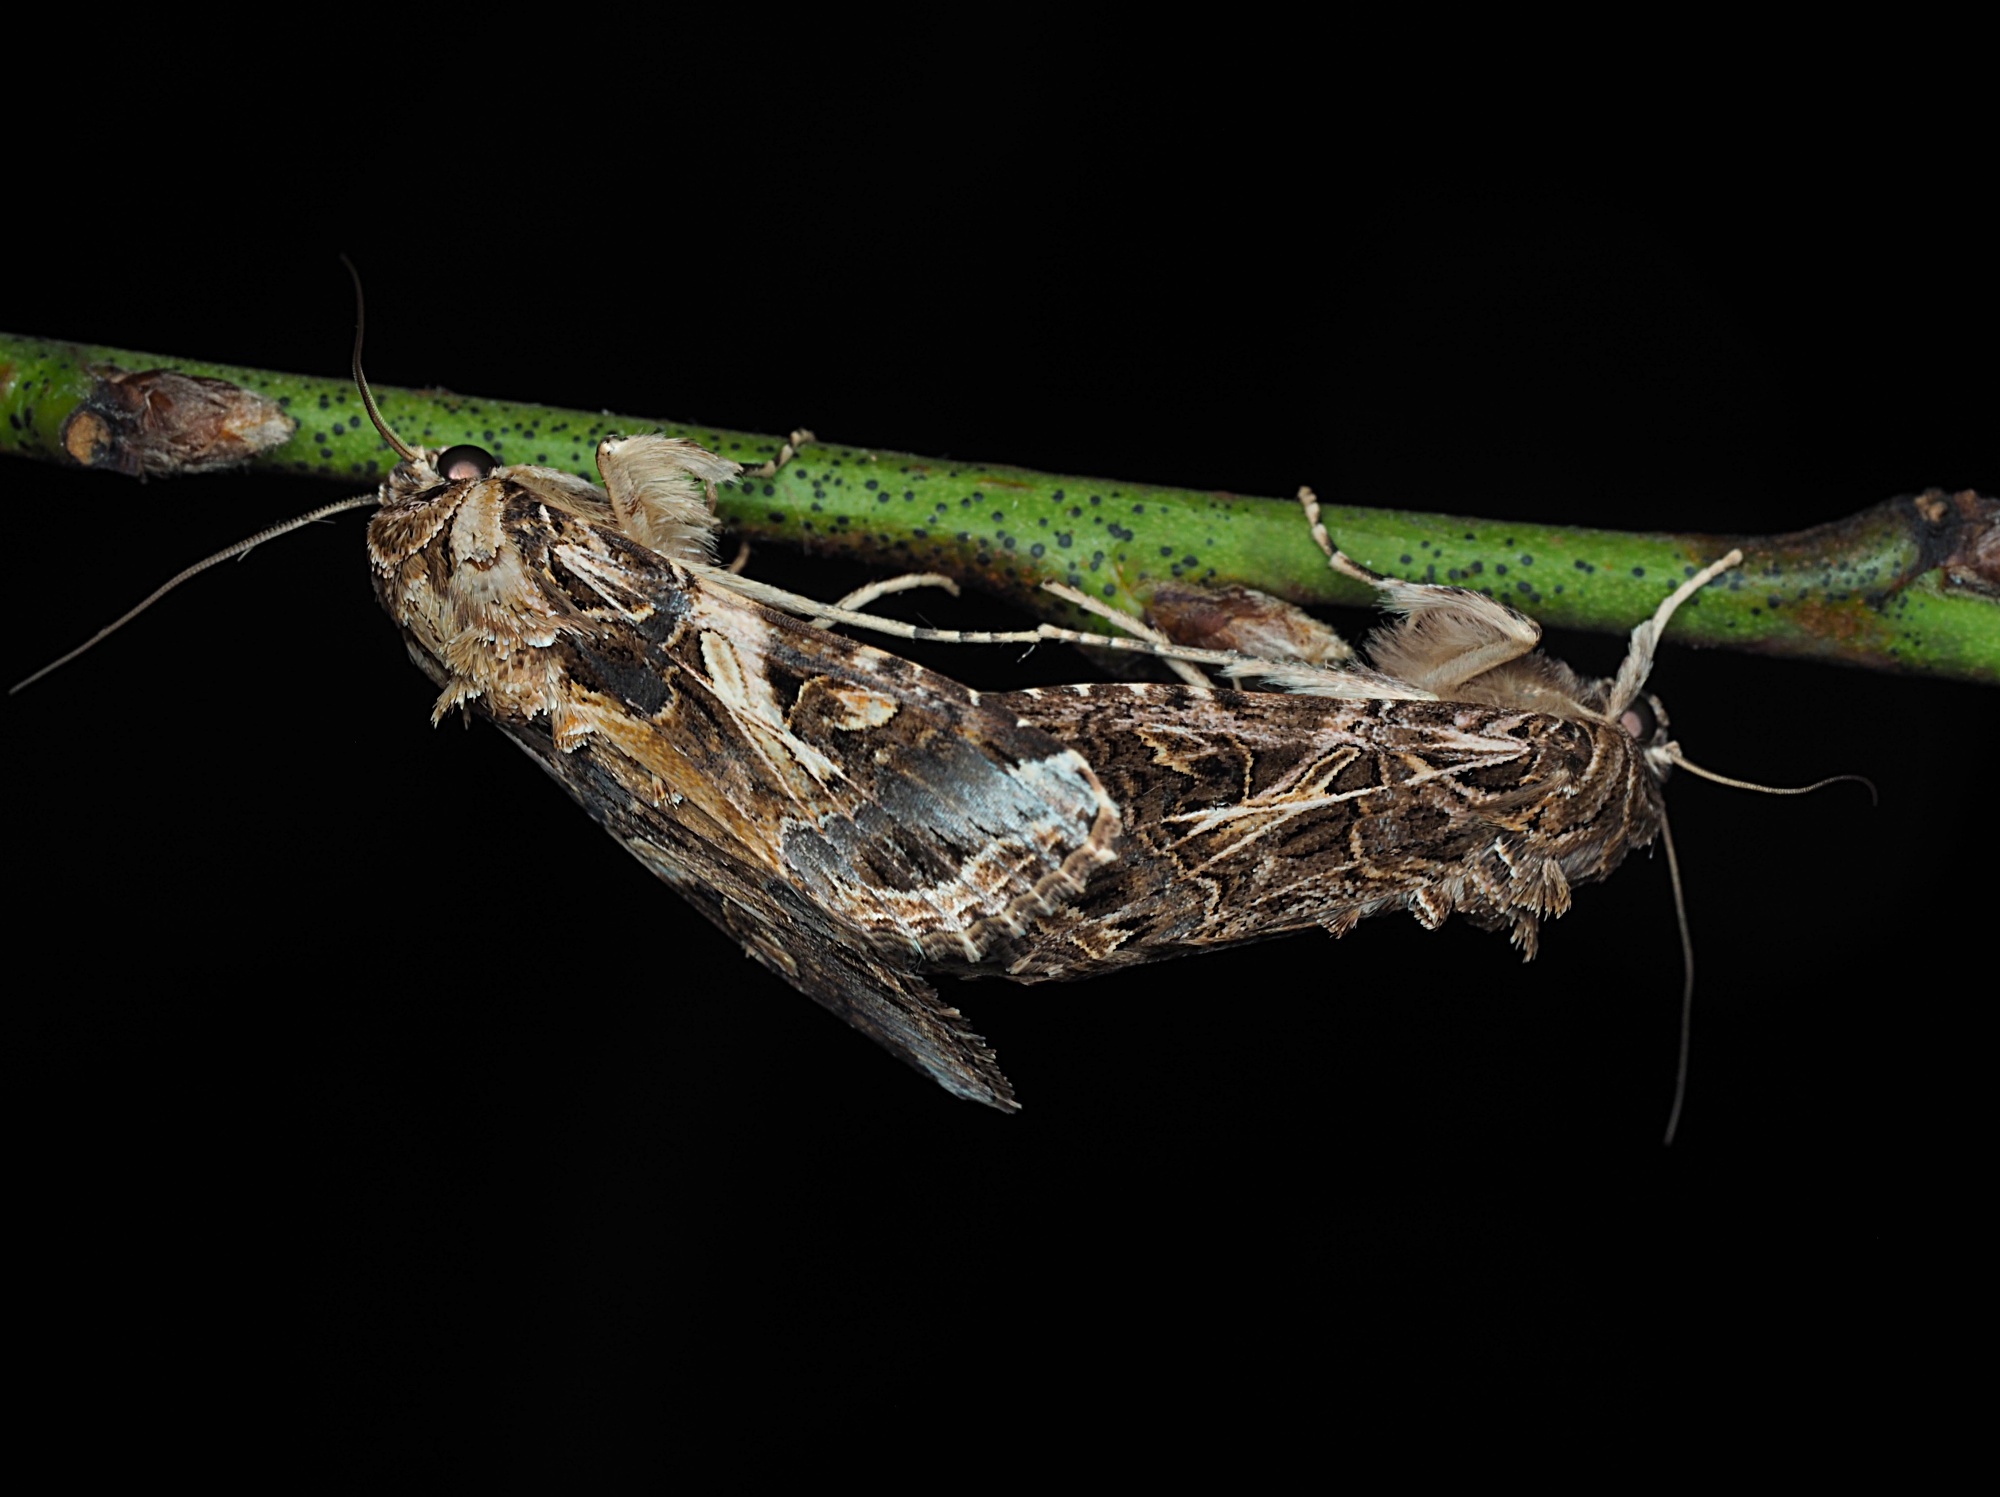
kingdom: Animalia
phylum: Arthropoda
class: Insecta
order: Lepidoptera
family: Noctuidae
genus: Spodoptera
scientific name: Spodoptera litura
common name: Asian cotton leafworm
